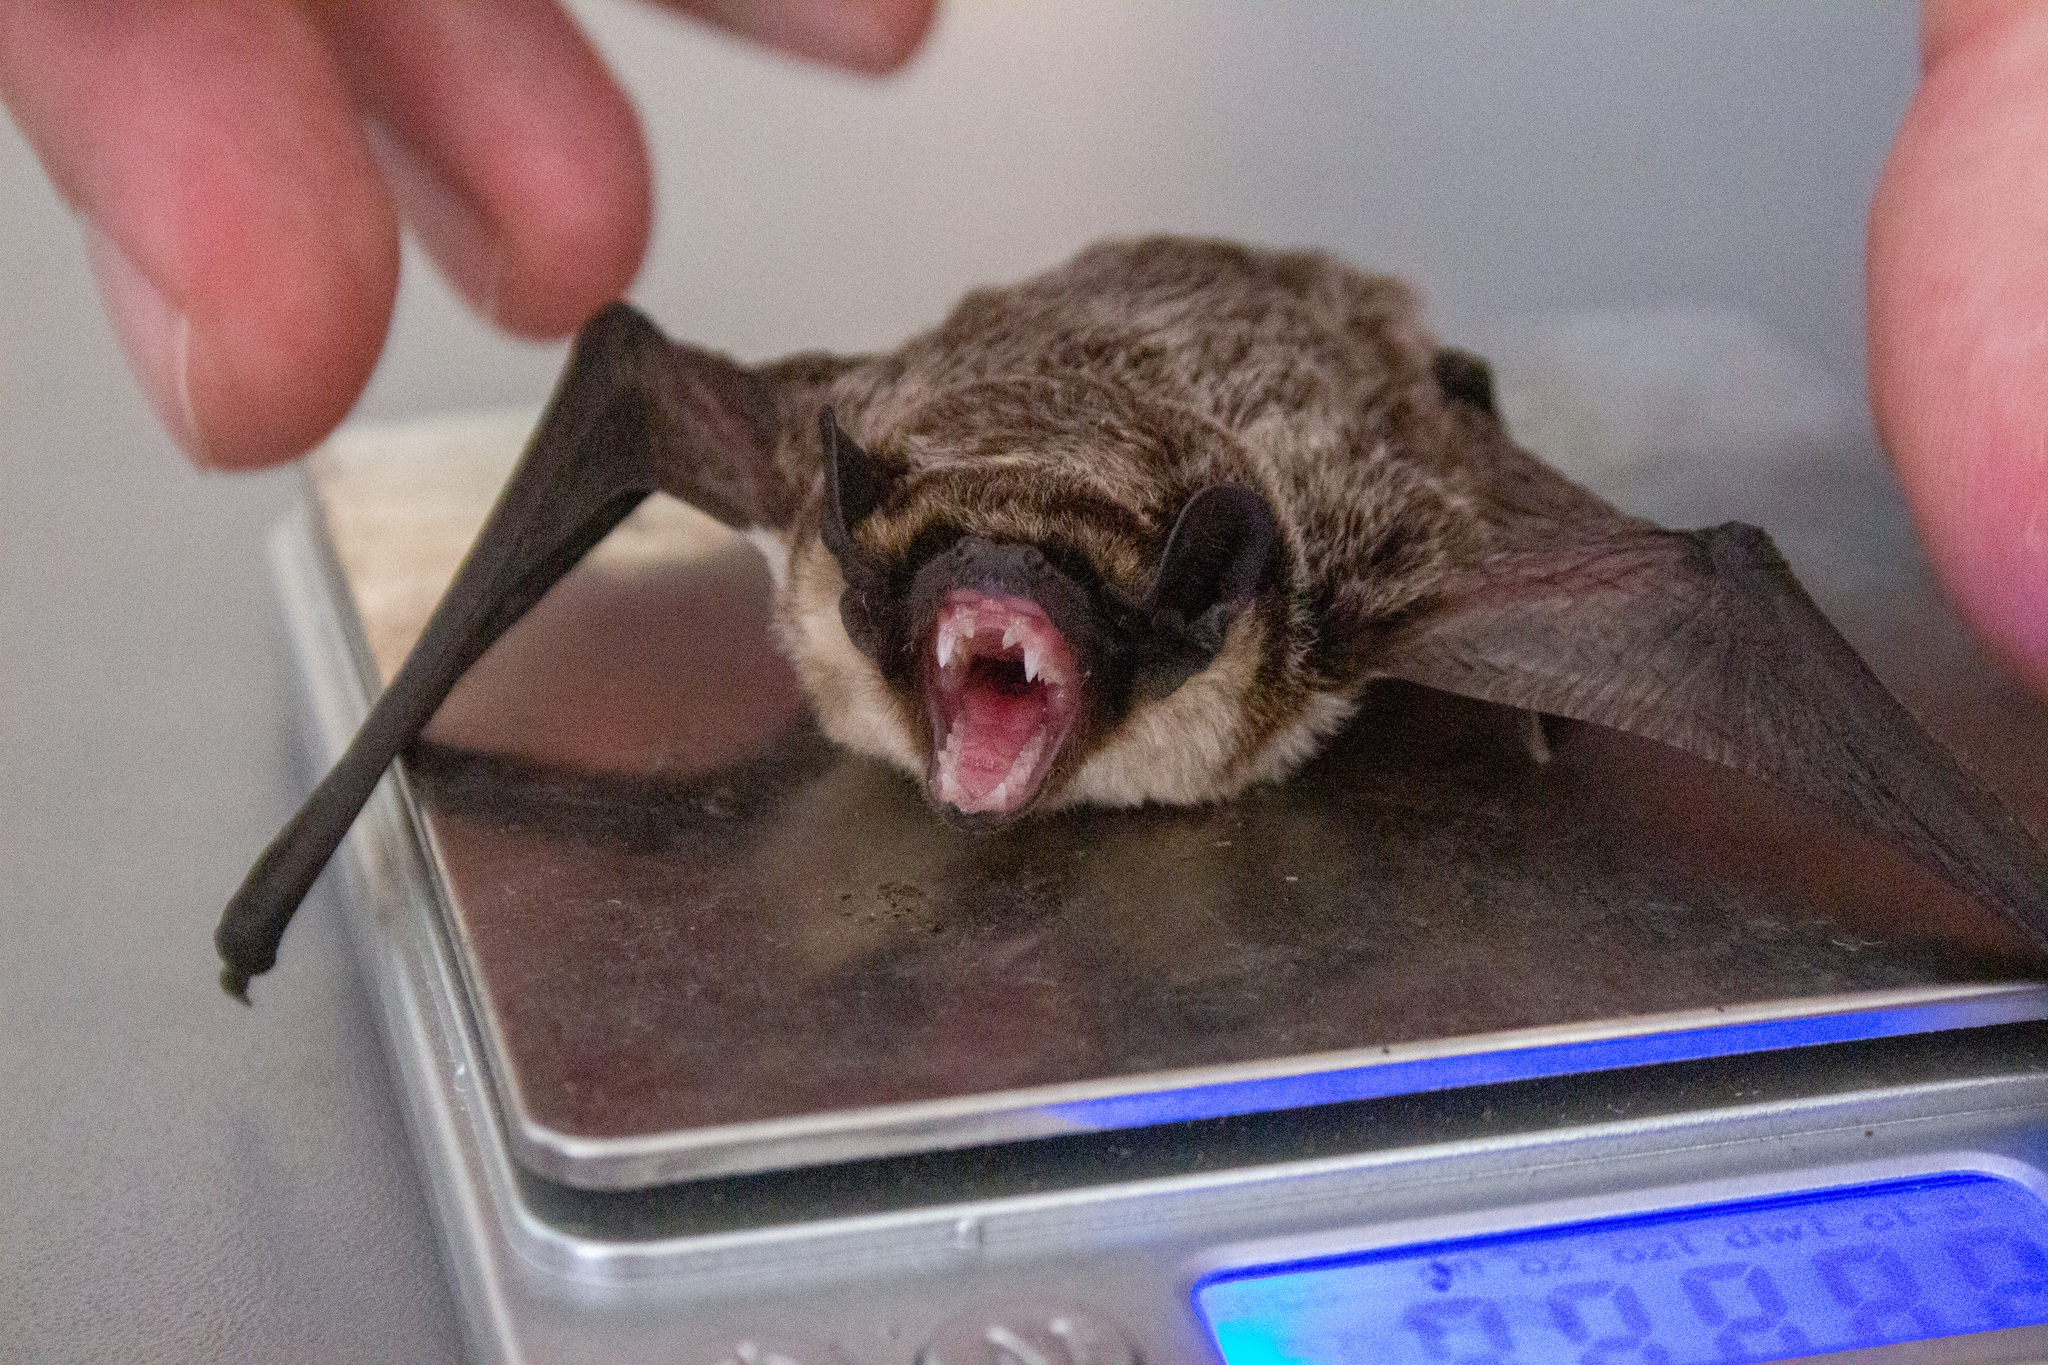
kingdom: Animalia
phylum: Chordata
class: Mammalia
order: Chiroptera
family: Vespertilionidae
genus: Vespertilio
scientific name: Vespertilio murinus
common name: Particolored bat
